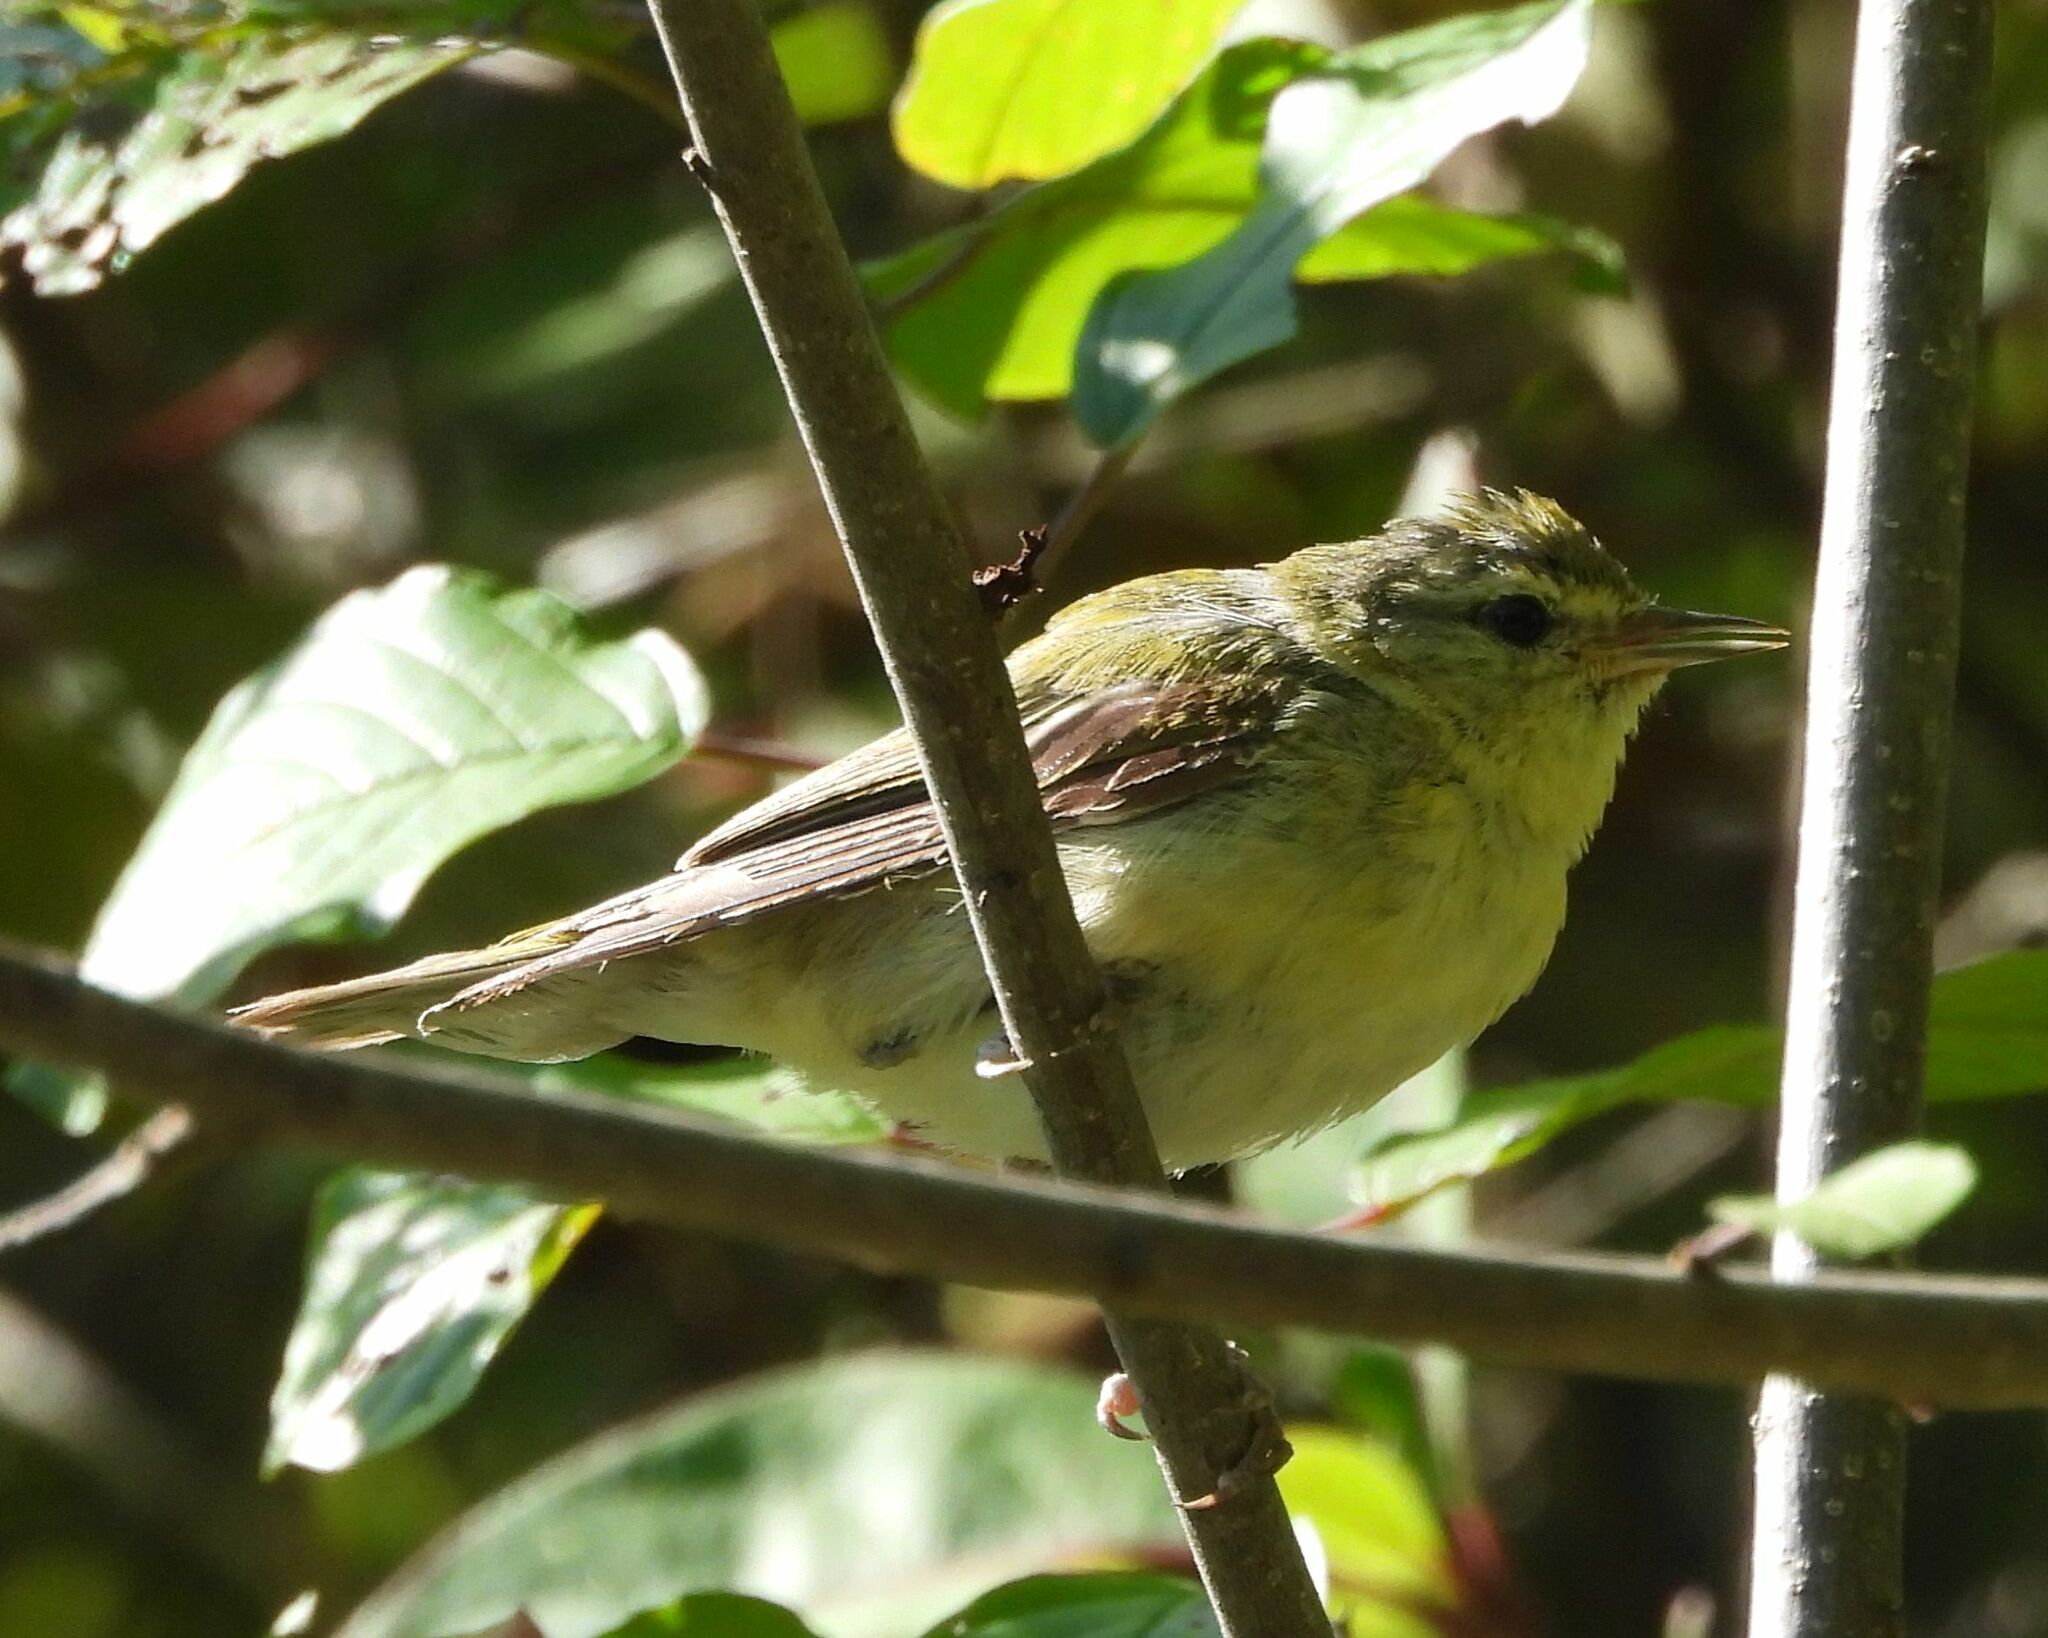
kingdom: Animalia
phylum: Chordata
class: Aves
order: Passeriformes
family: Parulidae
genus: Leiothlypis
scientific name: Leiothlypis peregrina
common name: Tennessee warbler
